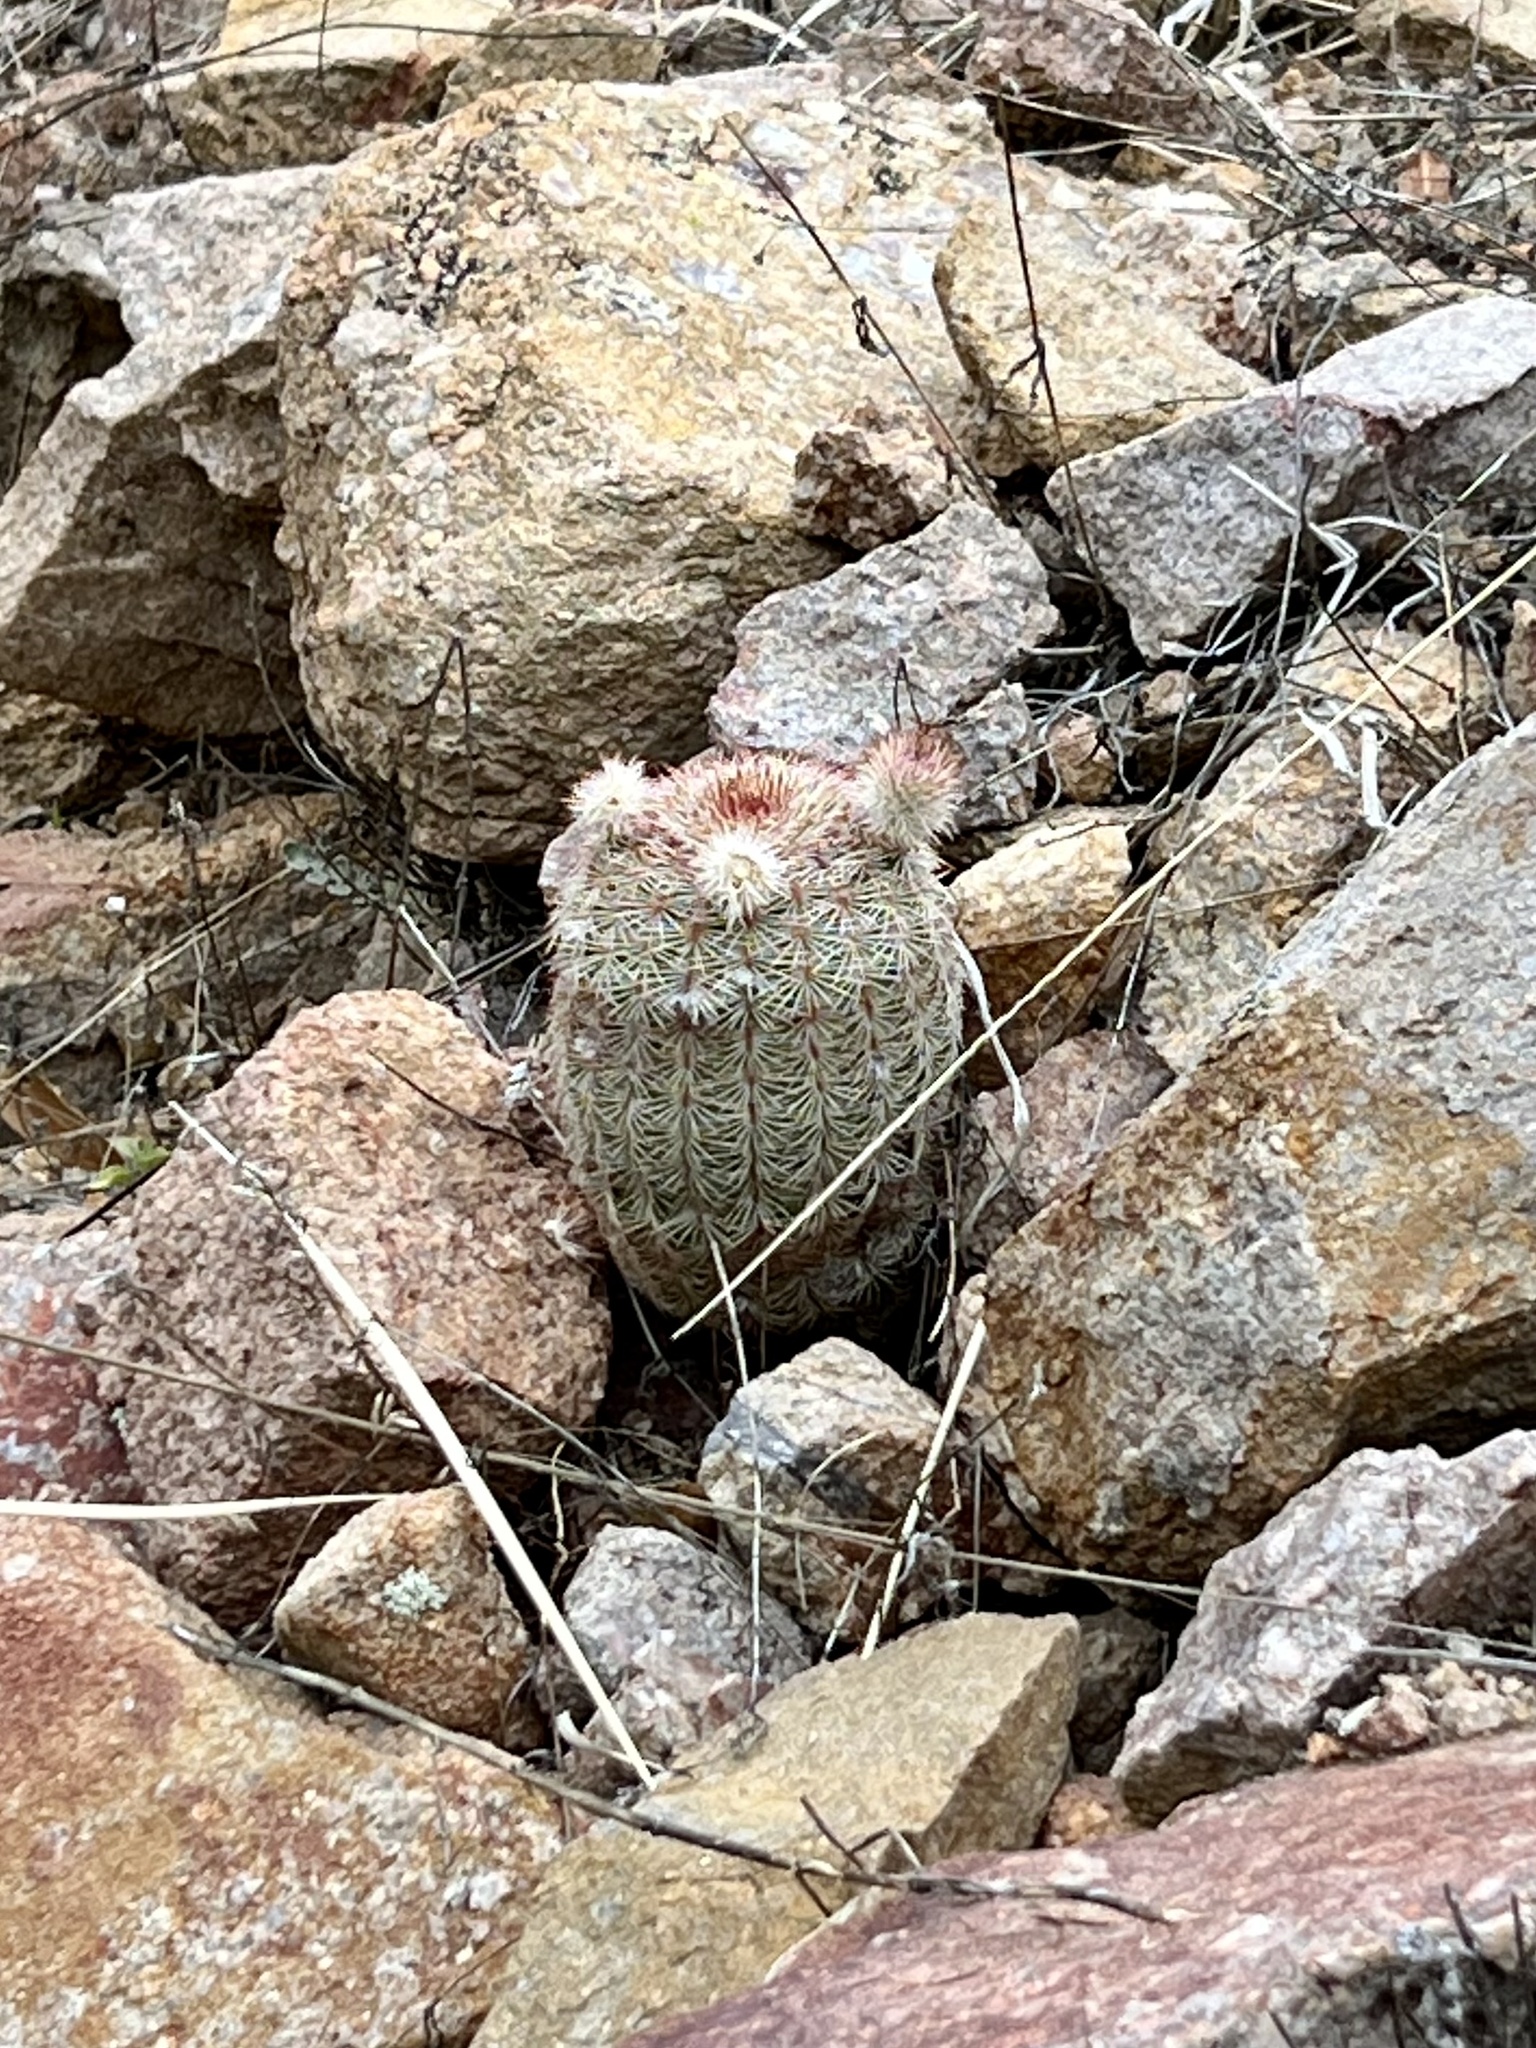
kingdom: Plantae
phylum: Tracheophyta
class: Magnoliopsida
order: Caryophyllales
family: Cactaceae
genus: Echinocereus
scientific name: Echinocereus rigidissimus
